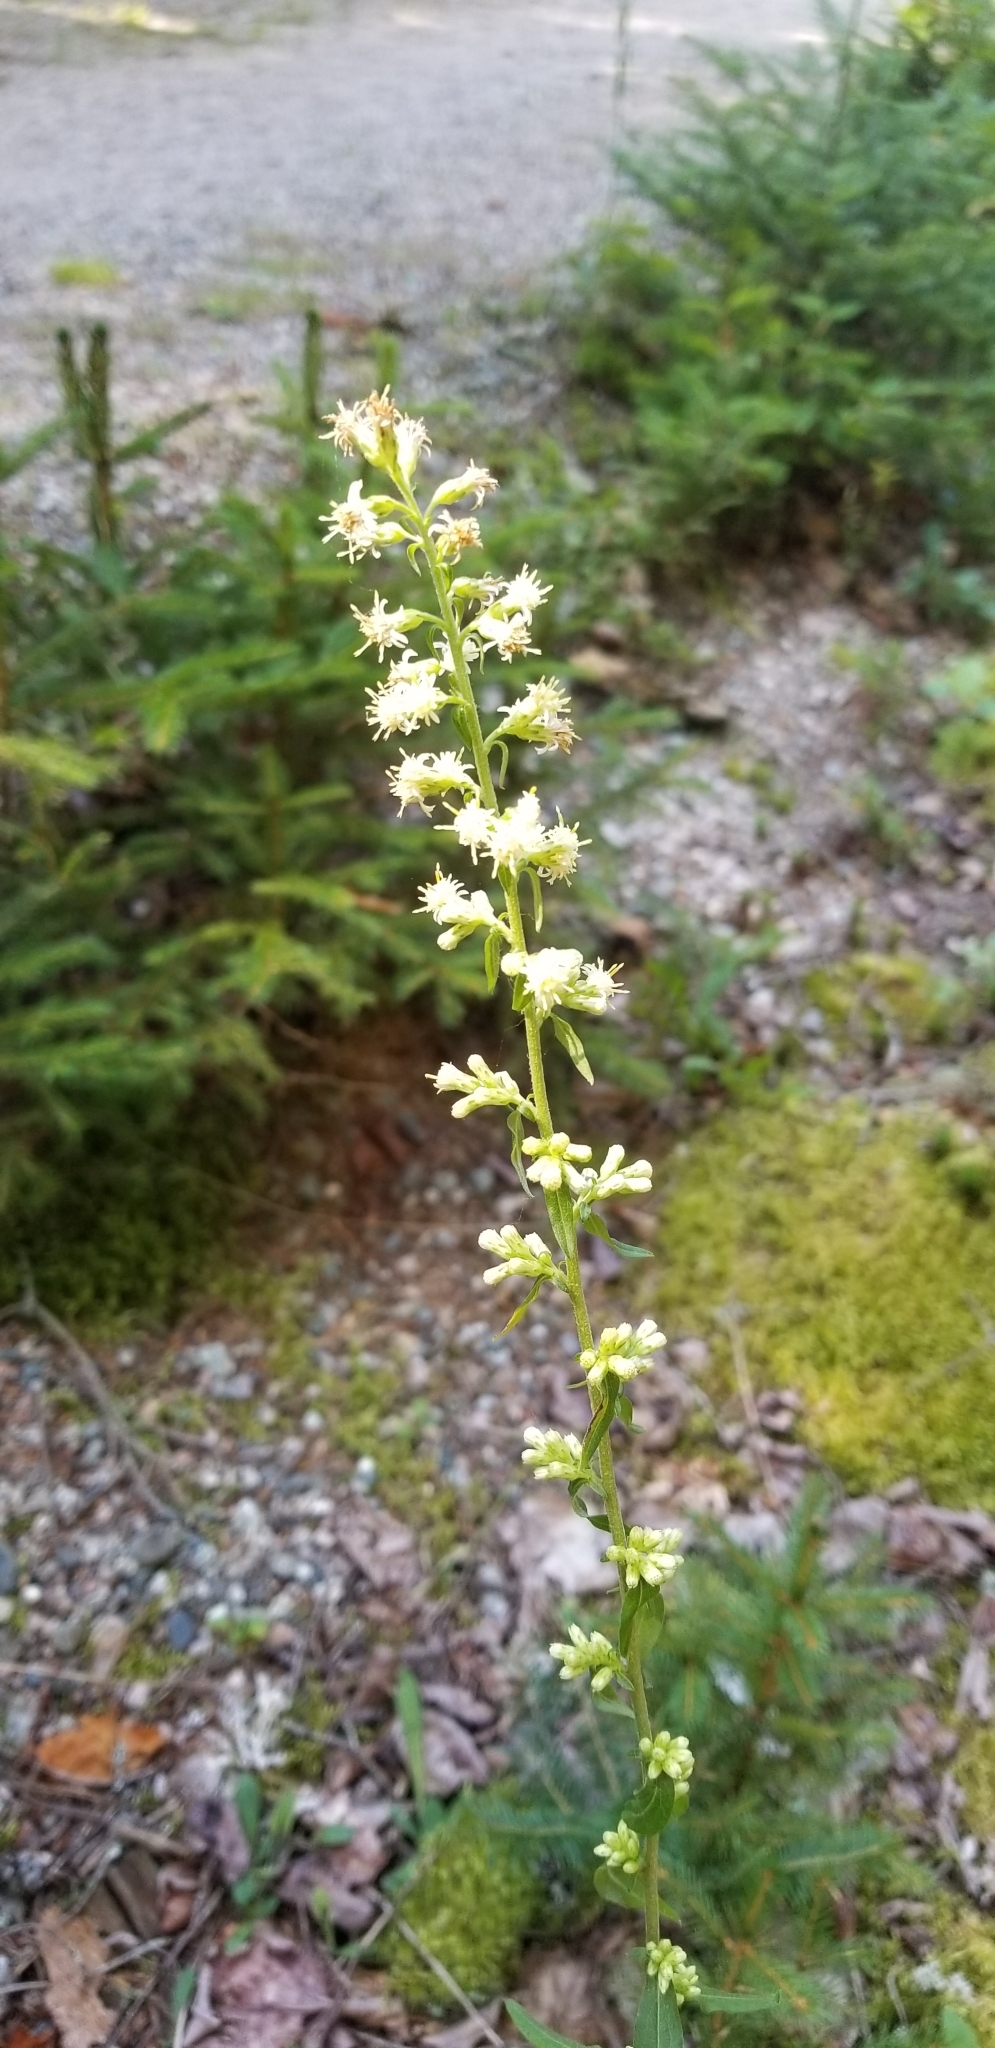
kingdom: Plantae
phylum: Tracheophyta
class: Magnoliopsida
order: Asterales
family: Asteraceae
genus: Solidago
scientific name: Solidago bicolor
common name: Silverrod
